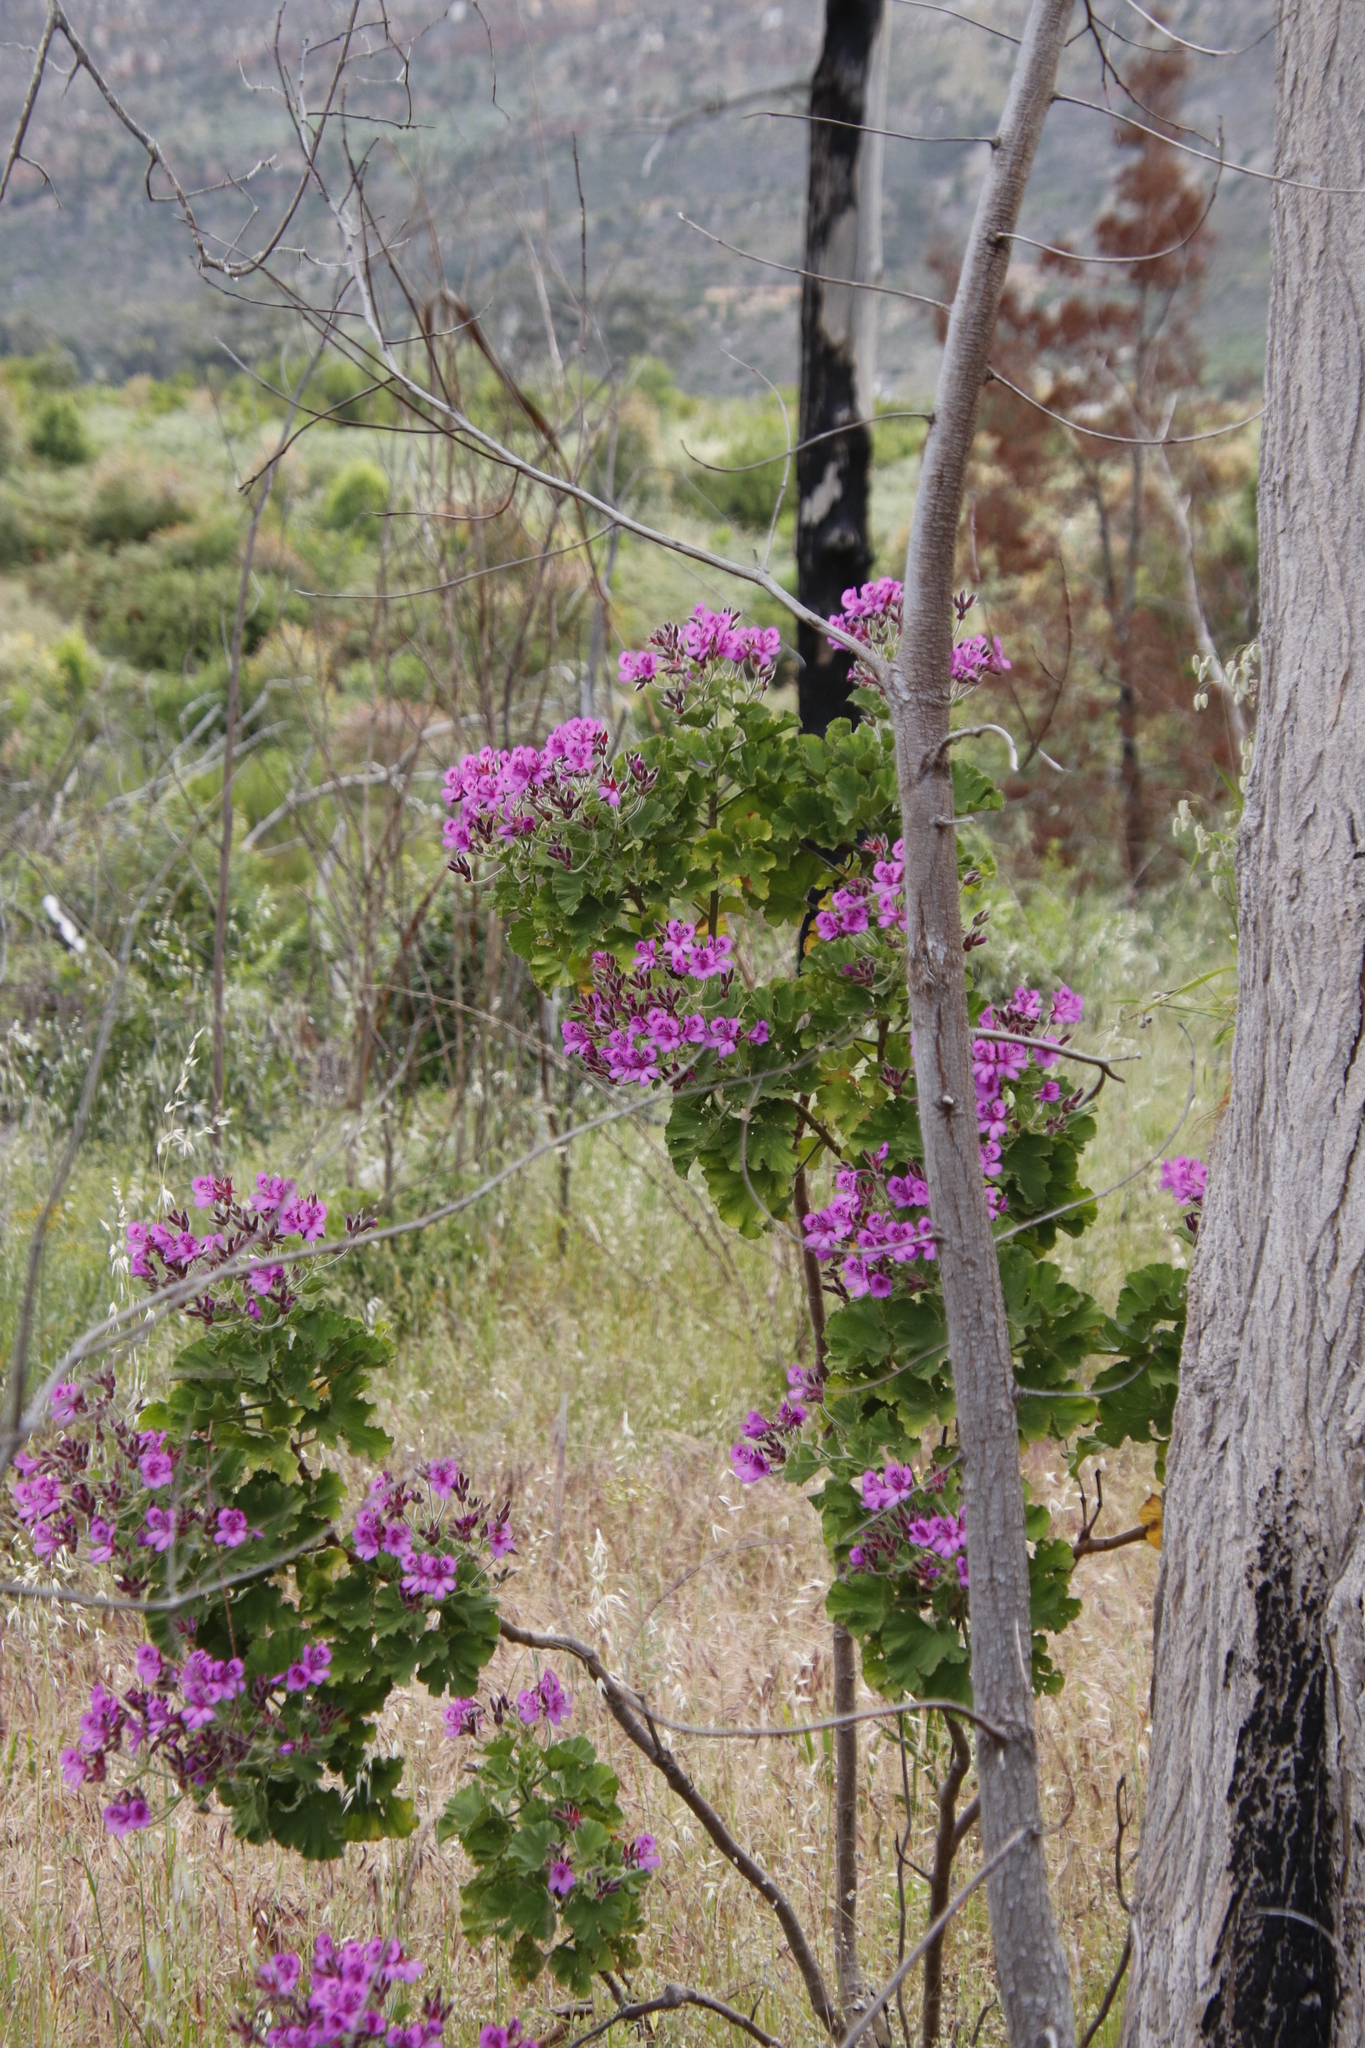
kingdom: Plantae
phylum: Tracheophyta
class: Magnoliopsida
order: Geraniales
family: Geraniaceae
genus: Pelargonium
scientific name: Pelargonium cucullatum
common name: Tree pelargonium
